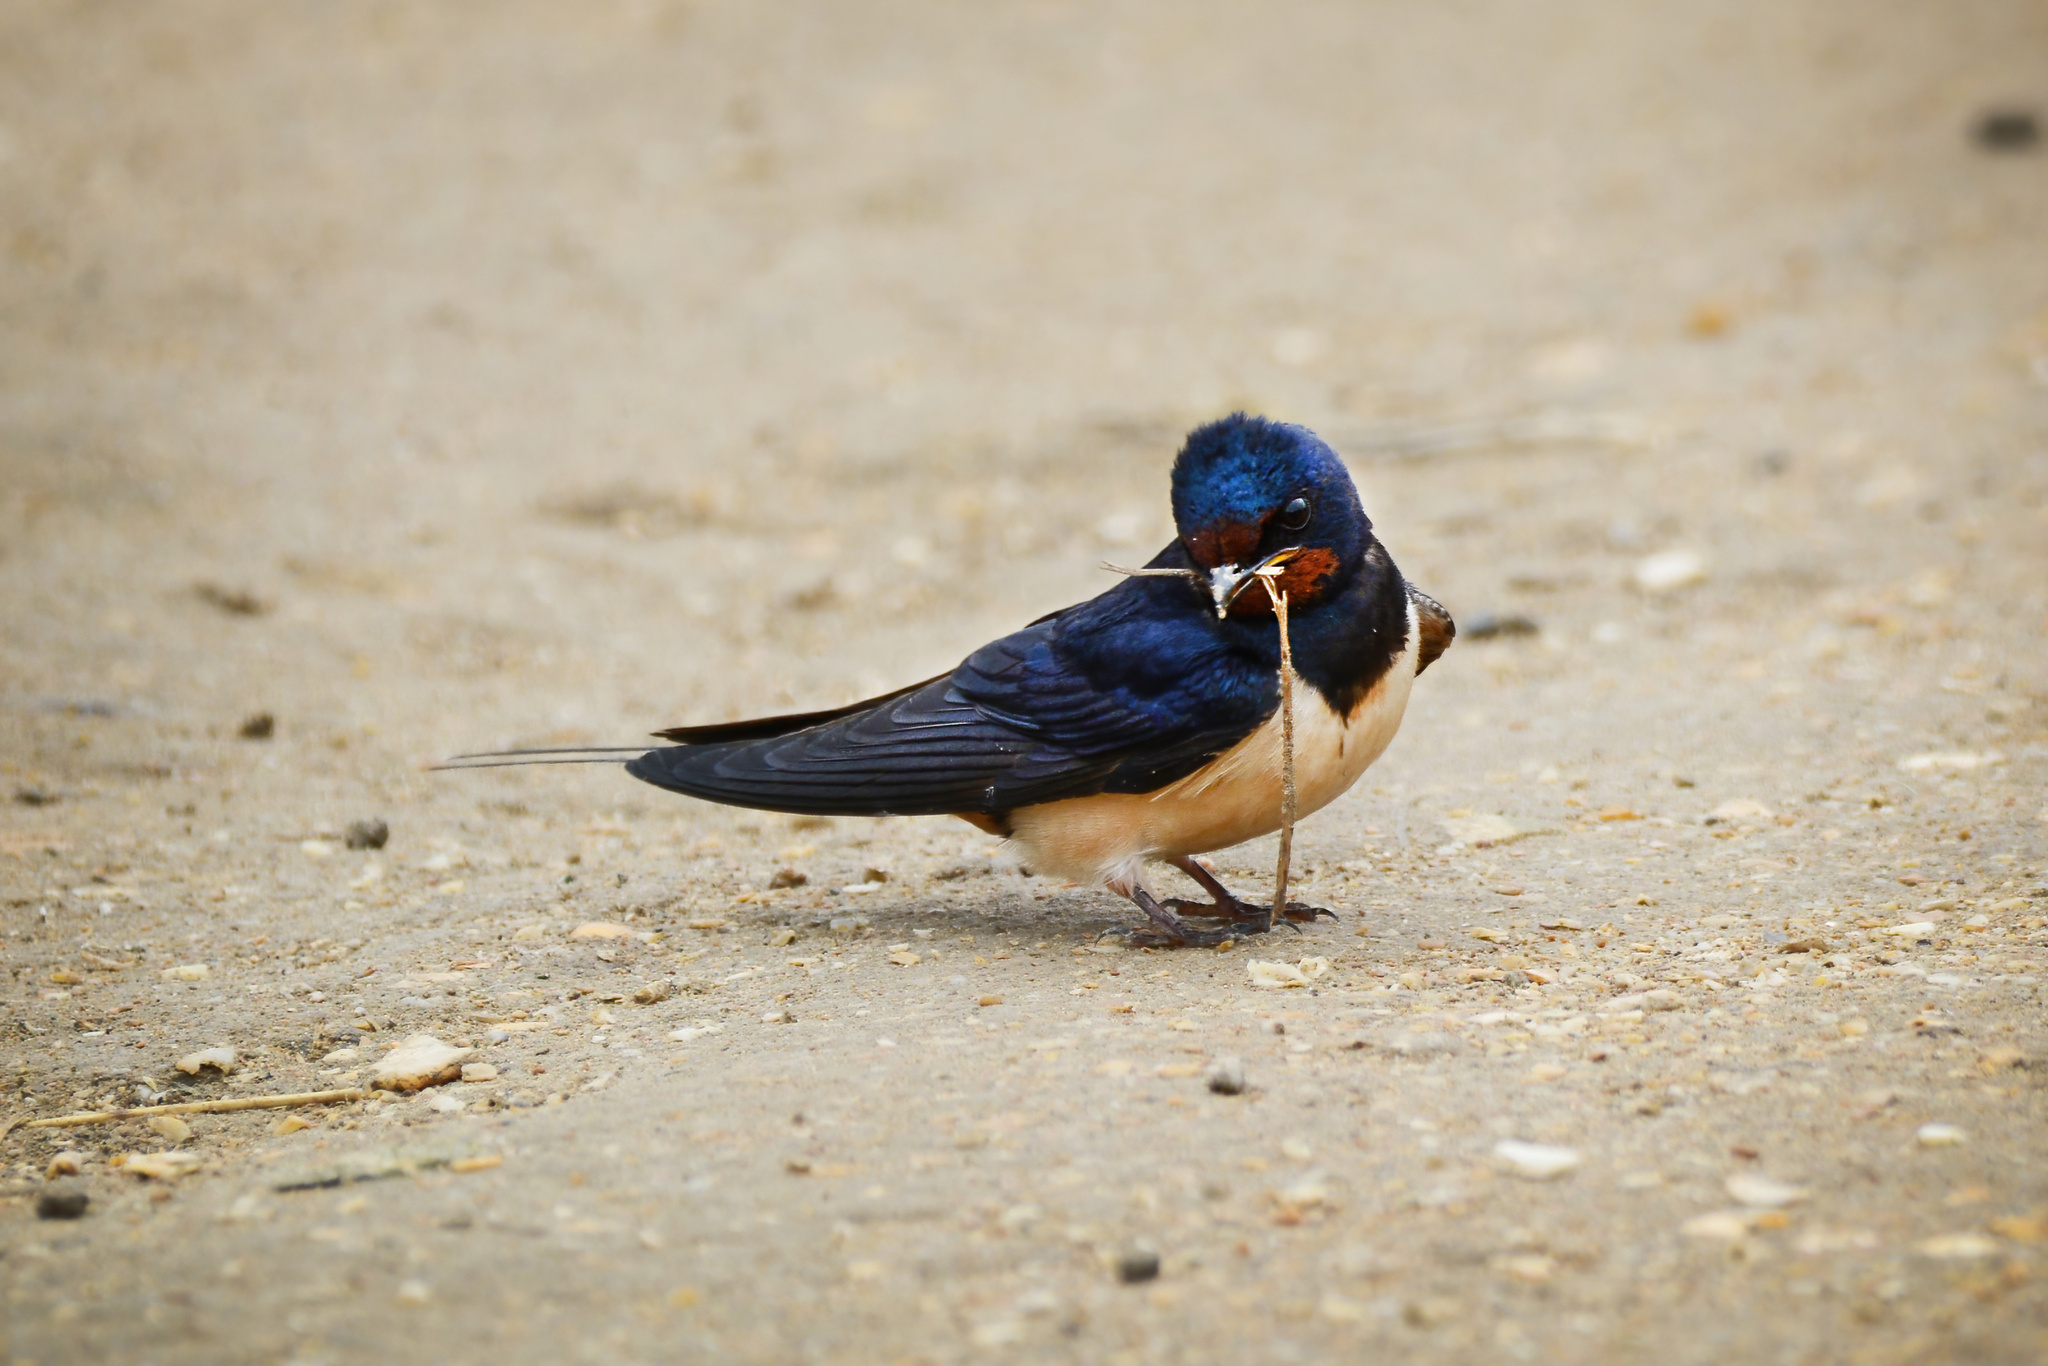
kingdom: Animalia
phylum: Chordata
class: Aves
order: Passeriformes
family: Hirundinidae
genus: Hirundo
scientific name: Hirundo rustica
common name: Barn swallow
